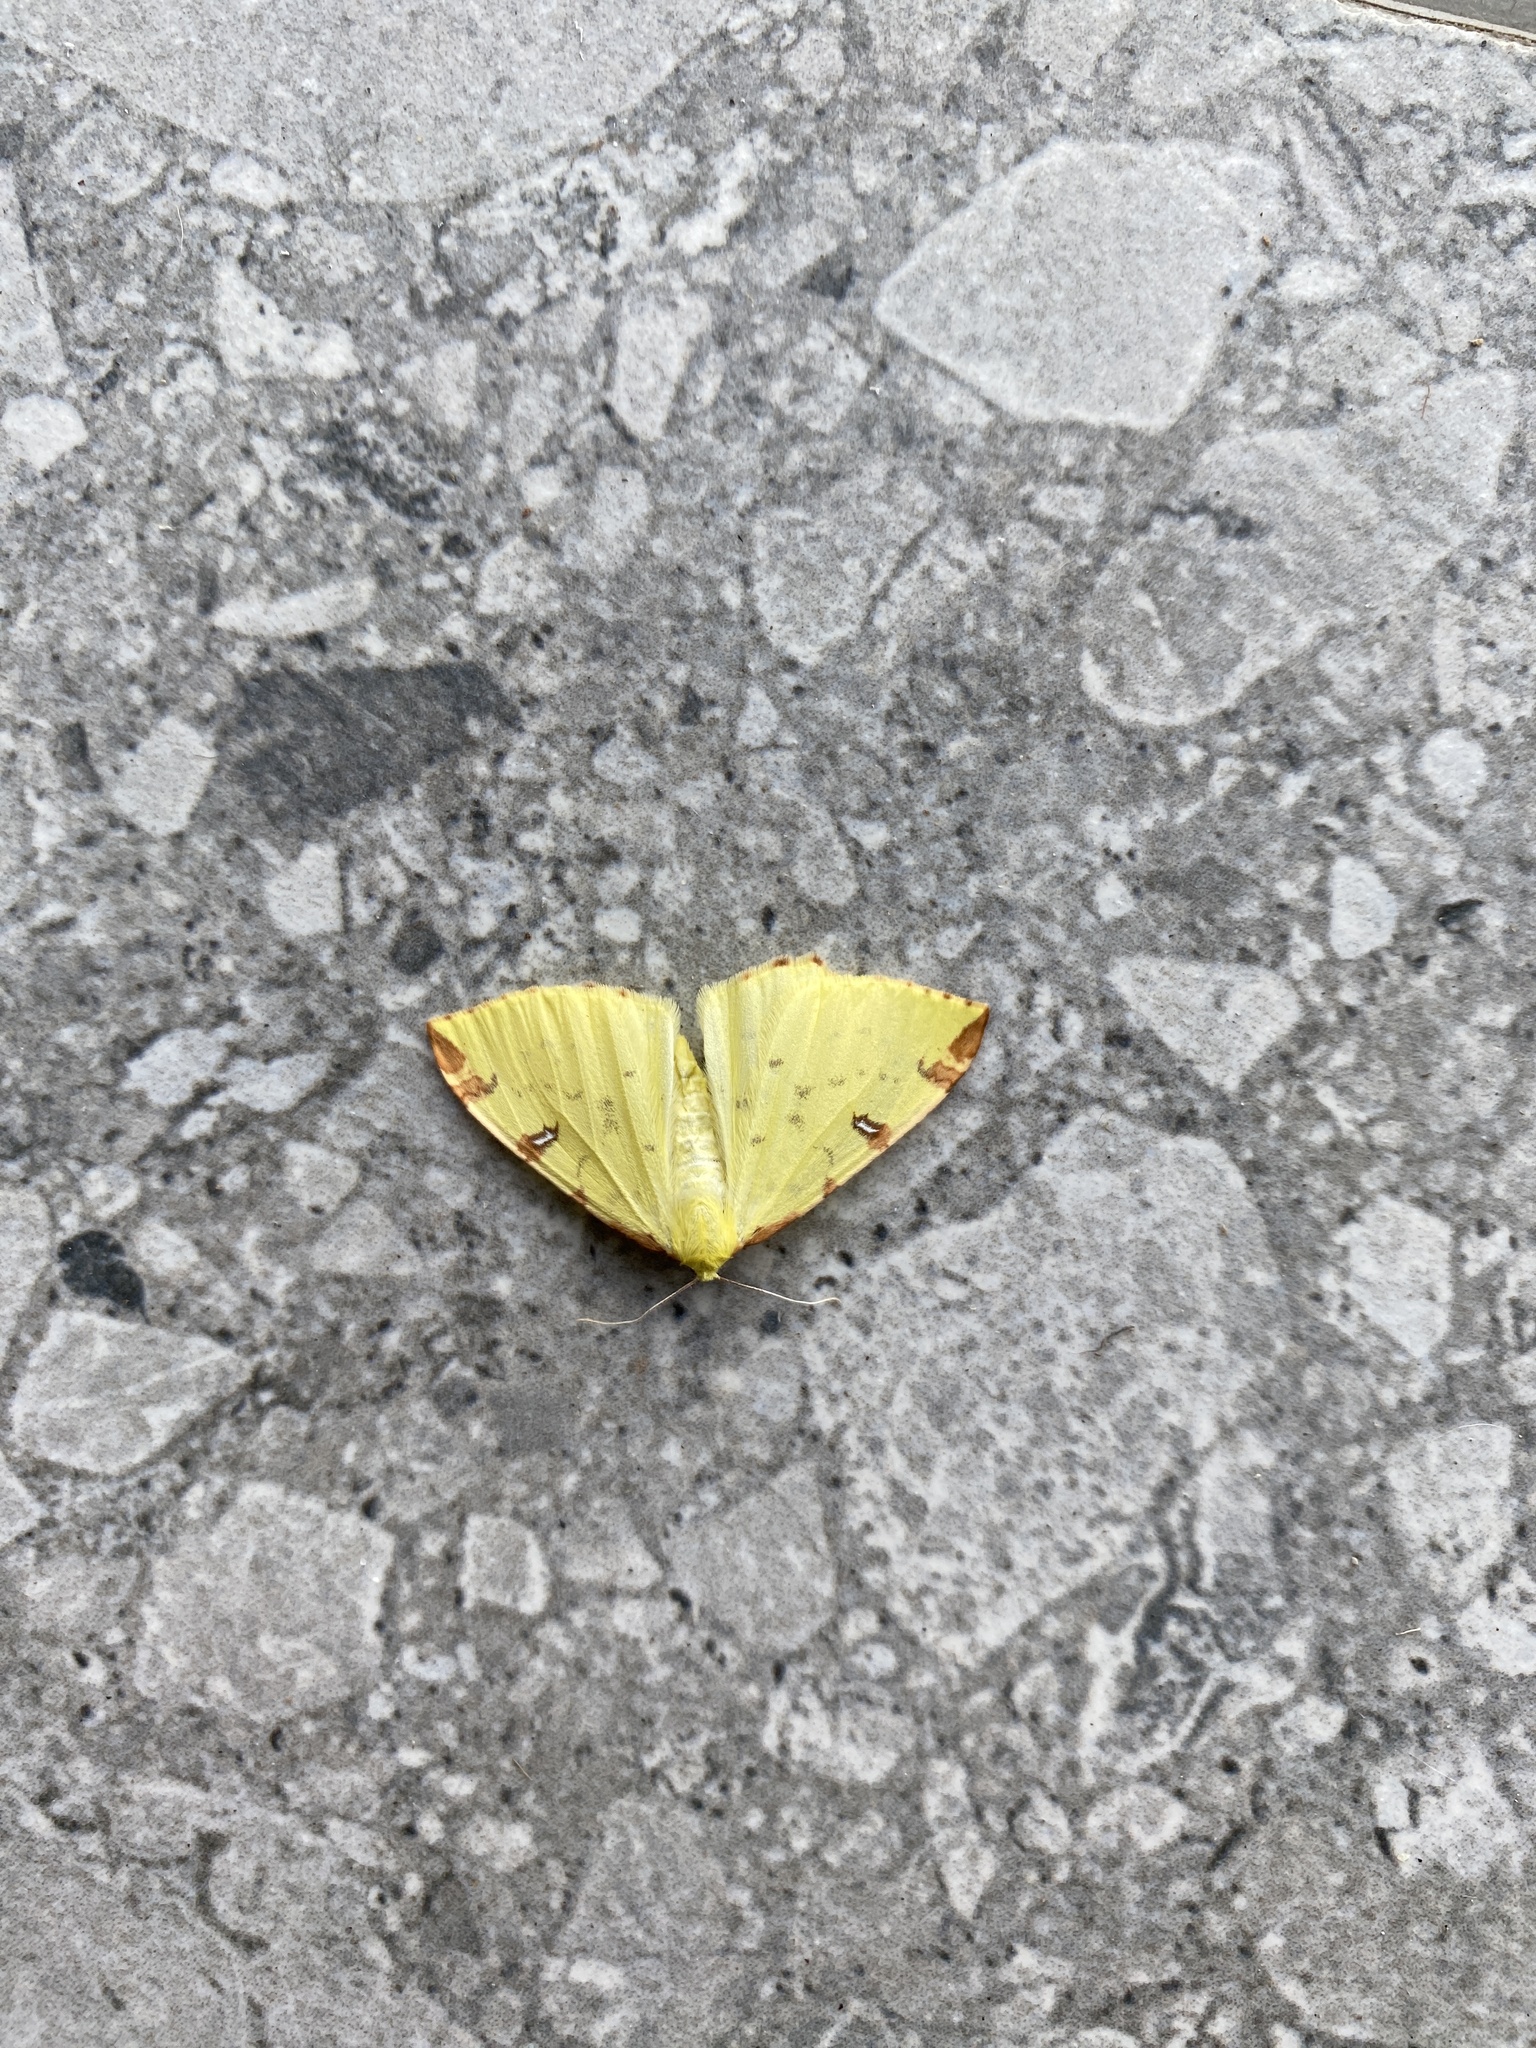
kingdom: Animalia
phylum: Arthropoda
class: Insecta
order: Lepidoptera
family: Geometridae
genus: Opisthograptis
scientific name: Opisthograptis luteolata
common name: Brimstone moth
